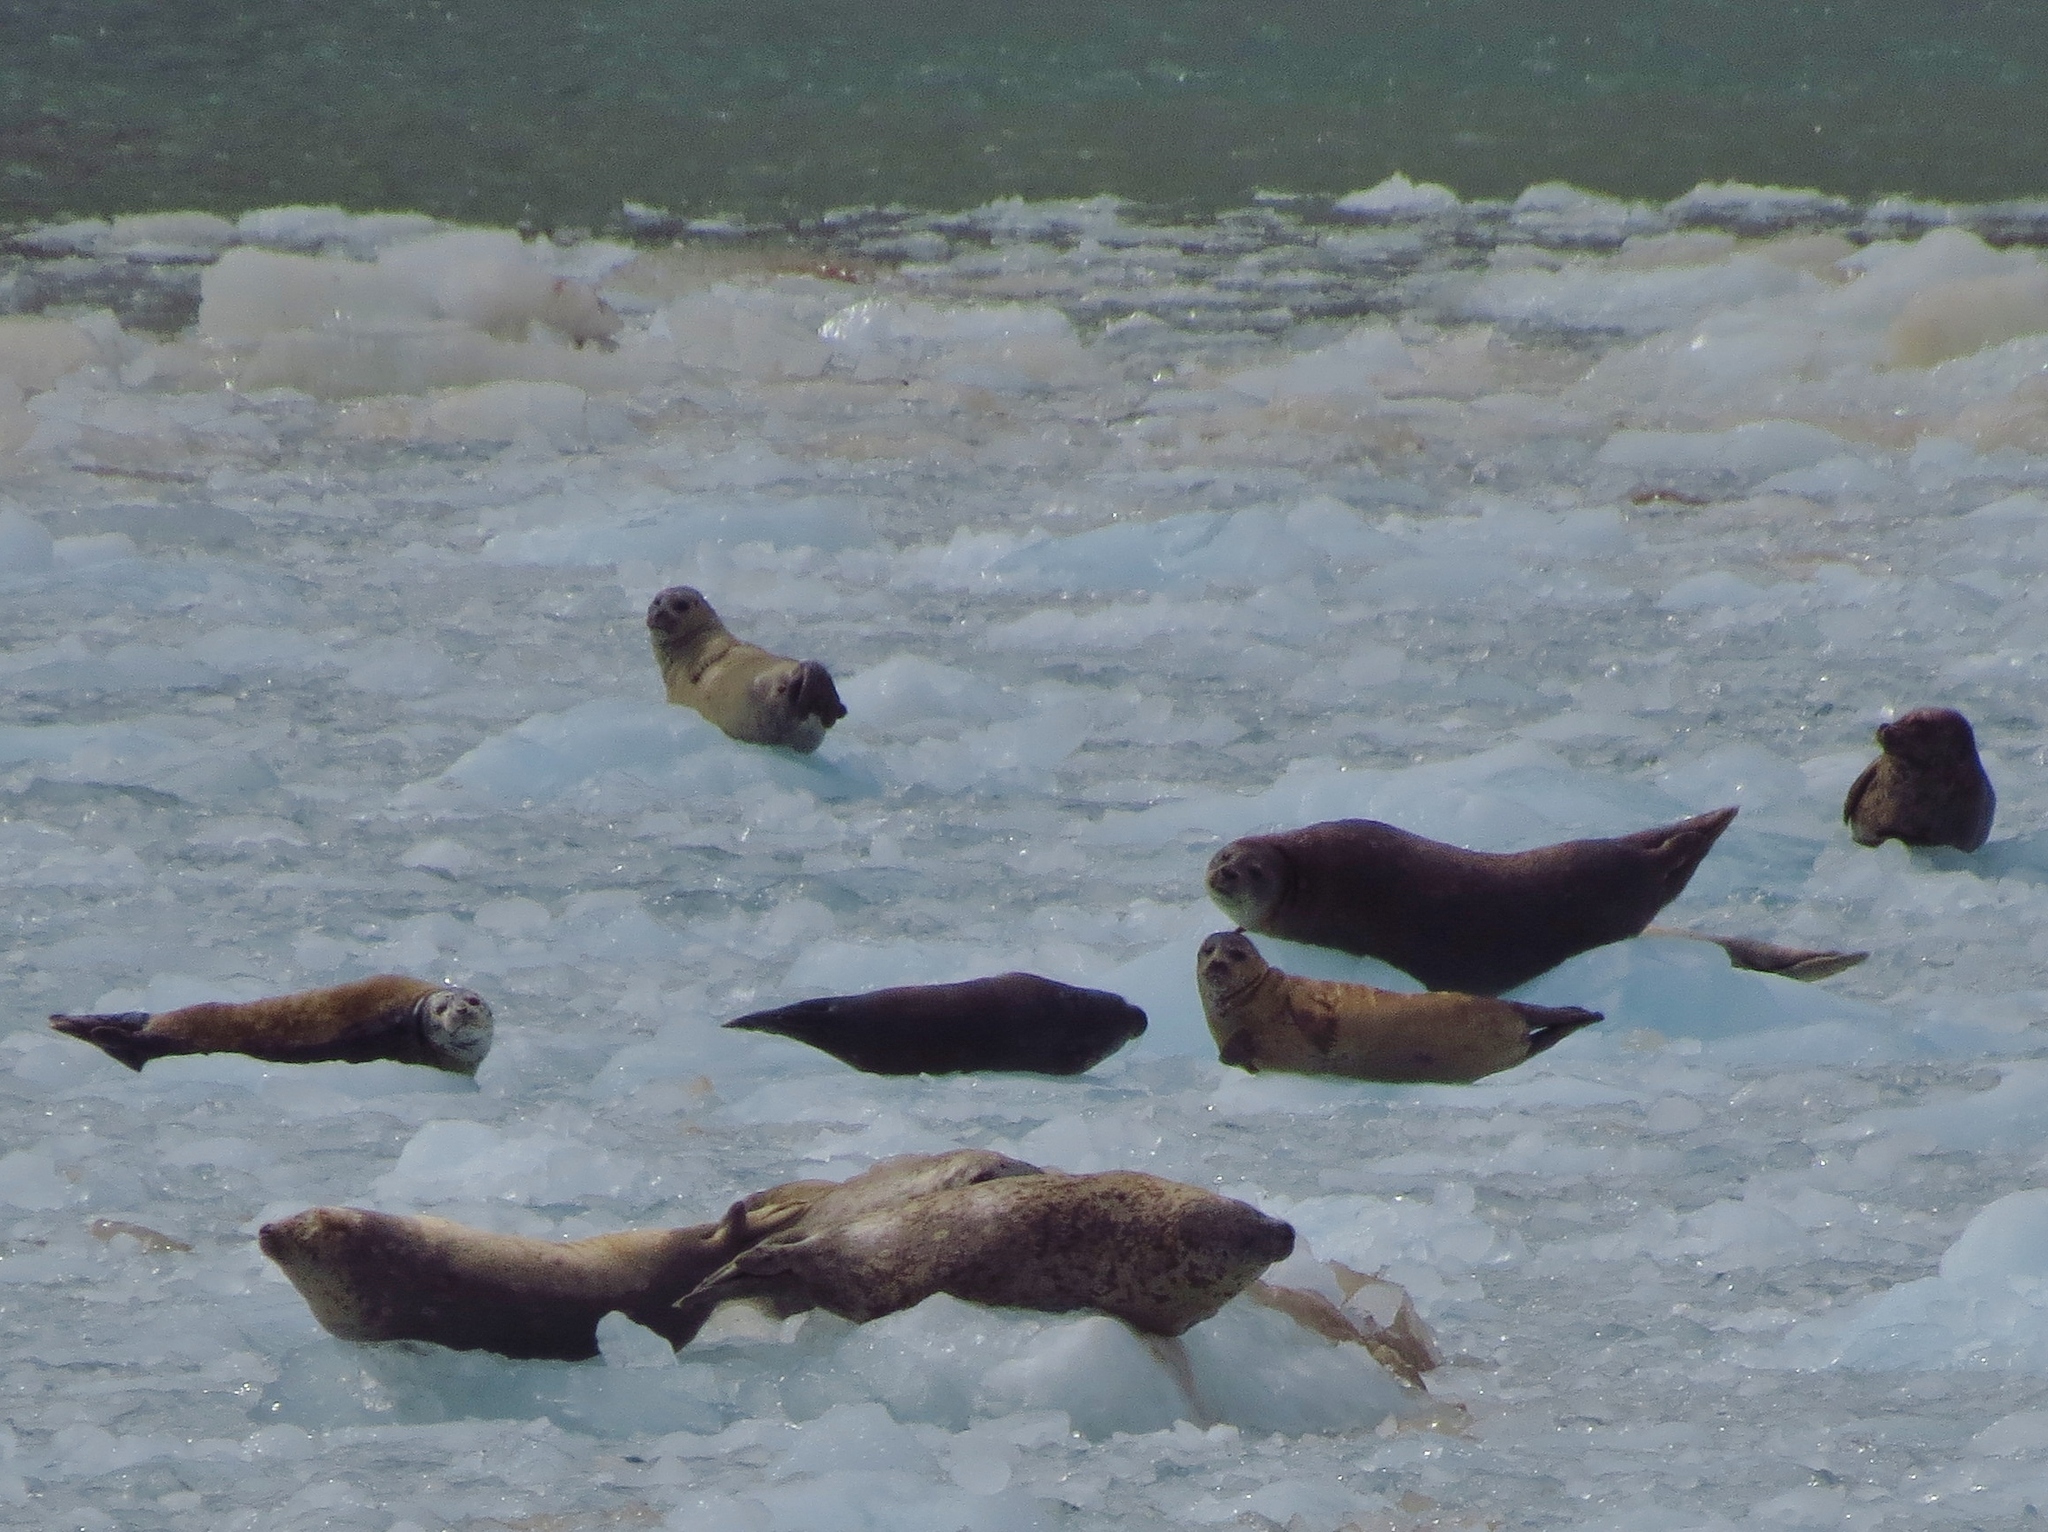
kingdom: Animalia
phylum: Chordata
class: Mammalia
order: Carnivora
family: Phocidae
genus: Phoca
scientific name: Phoca vitulina
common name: Harbor seal
